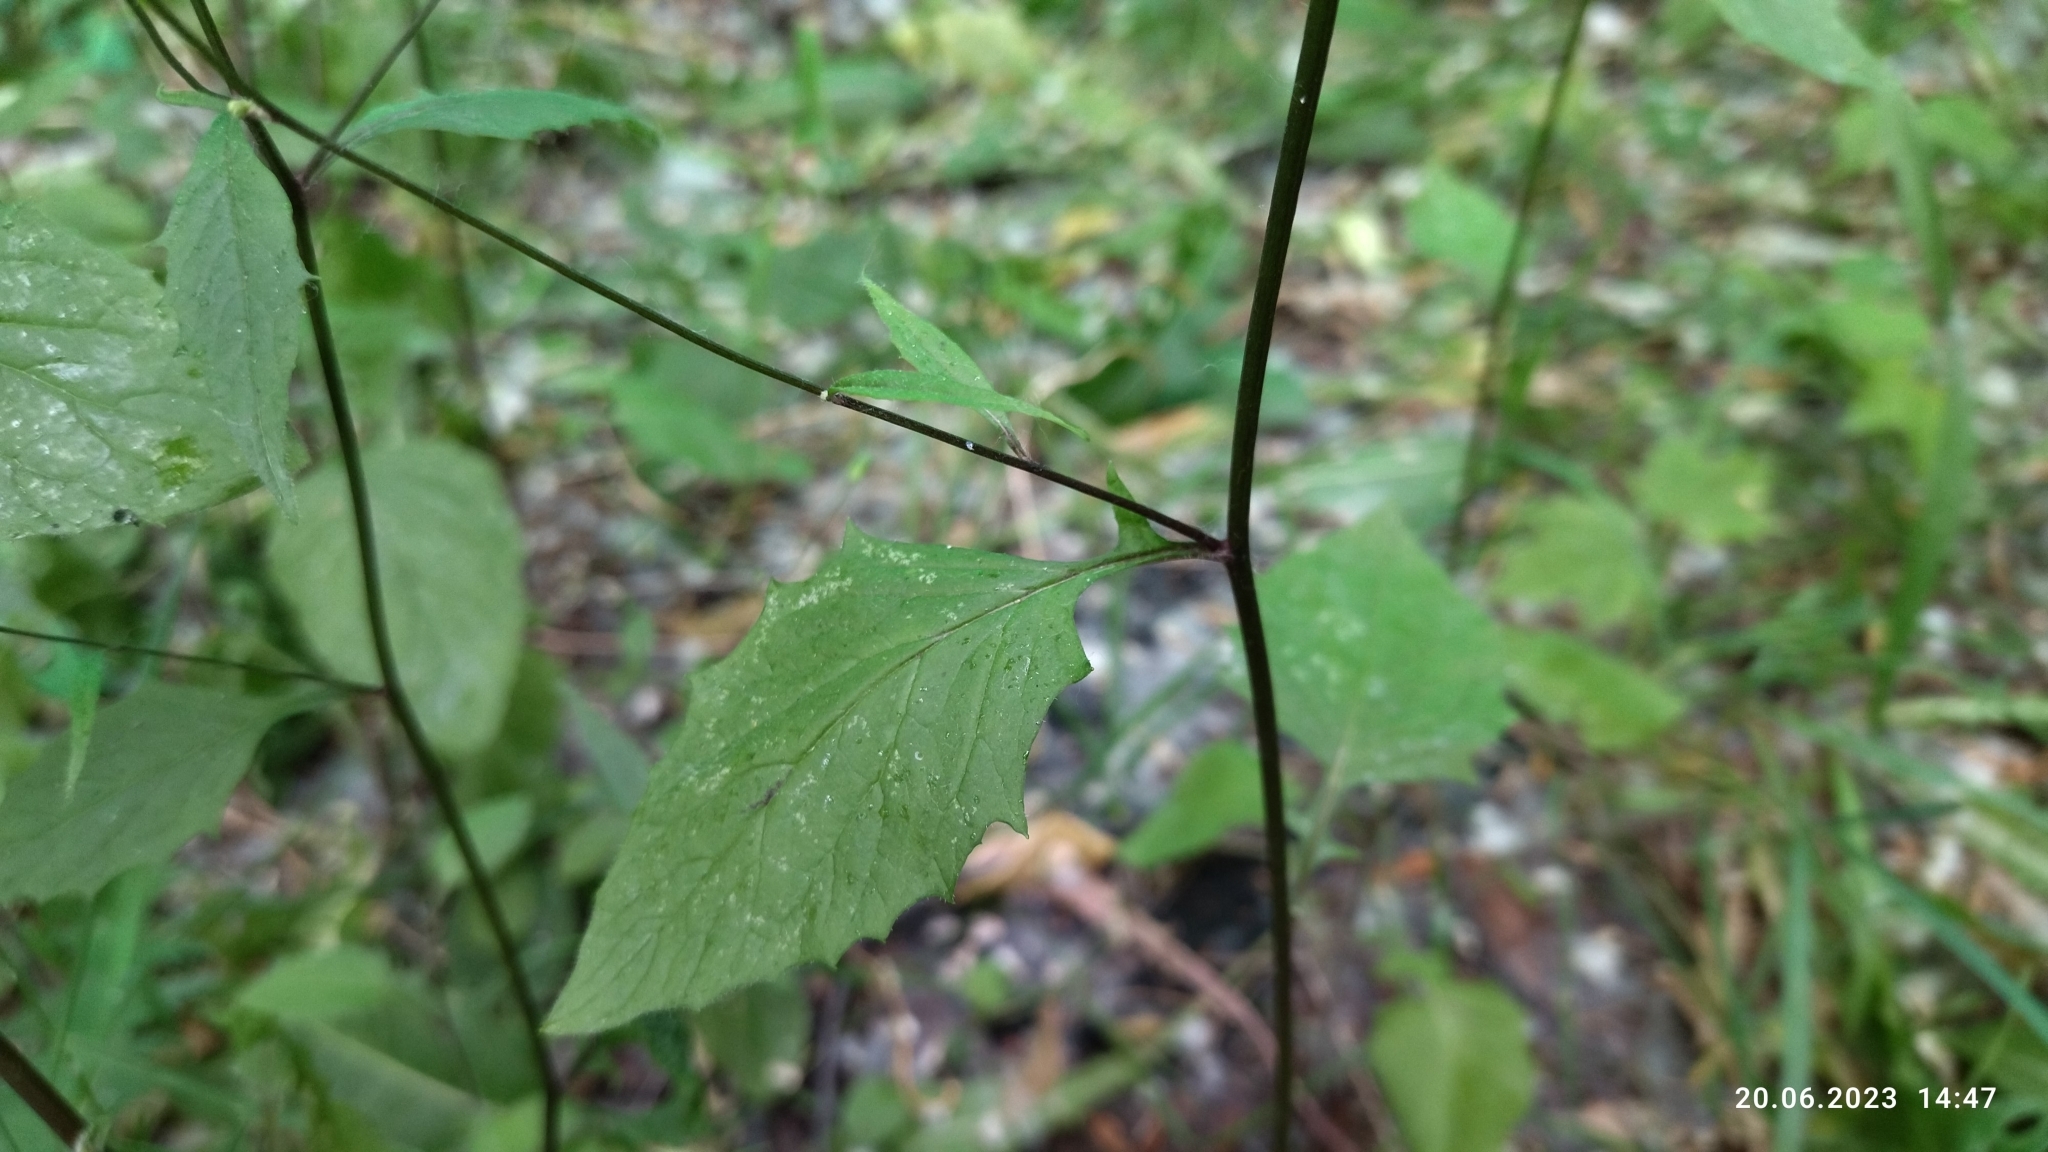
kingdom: Plantae
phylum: Tracheophyta
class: Magnoliopsida
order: Asterales
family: Asteraceae
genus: Lapsana
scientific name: Lapsana communis
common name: Nipplewort
